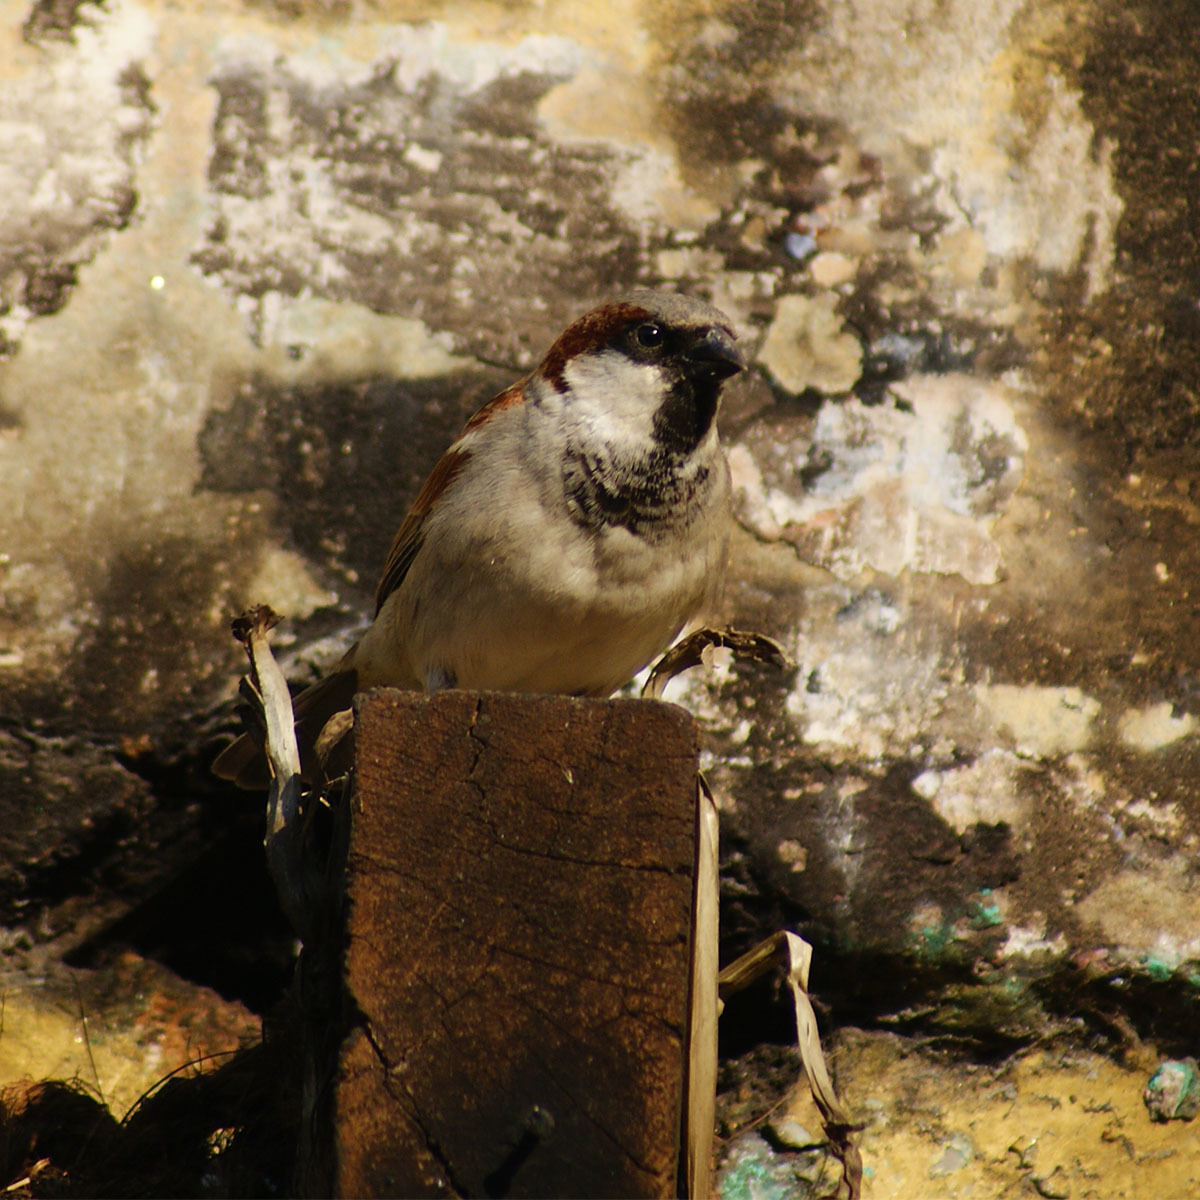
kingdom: Animalia
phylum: Chordata
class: Aves
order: Passeriformes
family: Passeridae
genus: Passer
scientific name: Passer domesticus
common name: House sparrow
